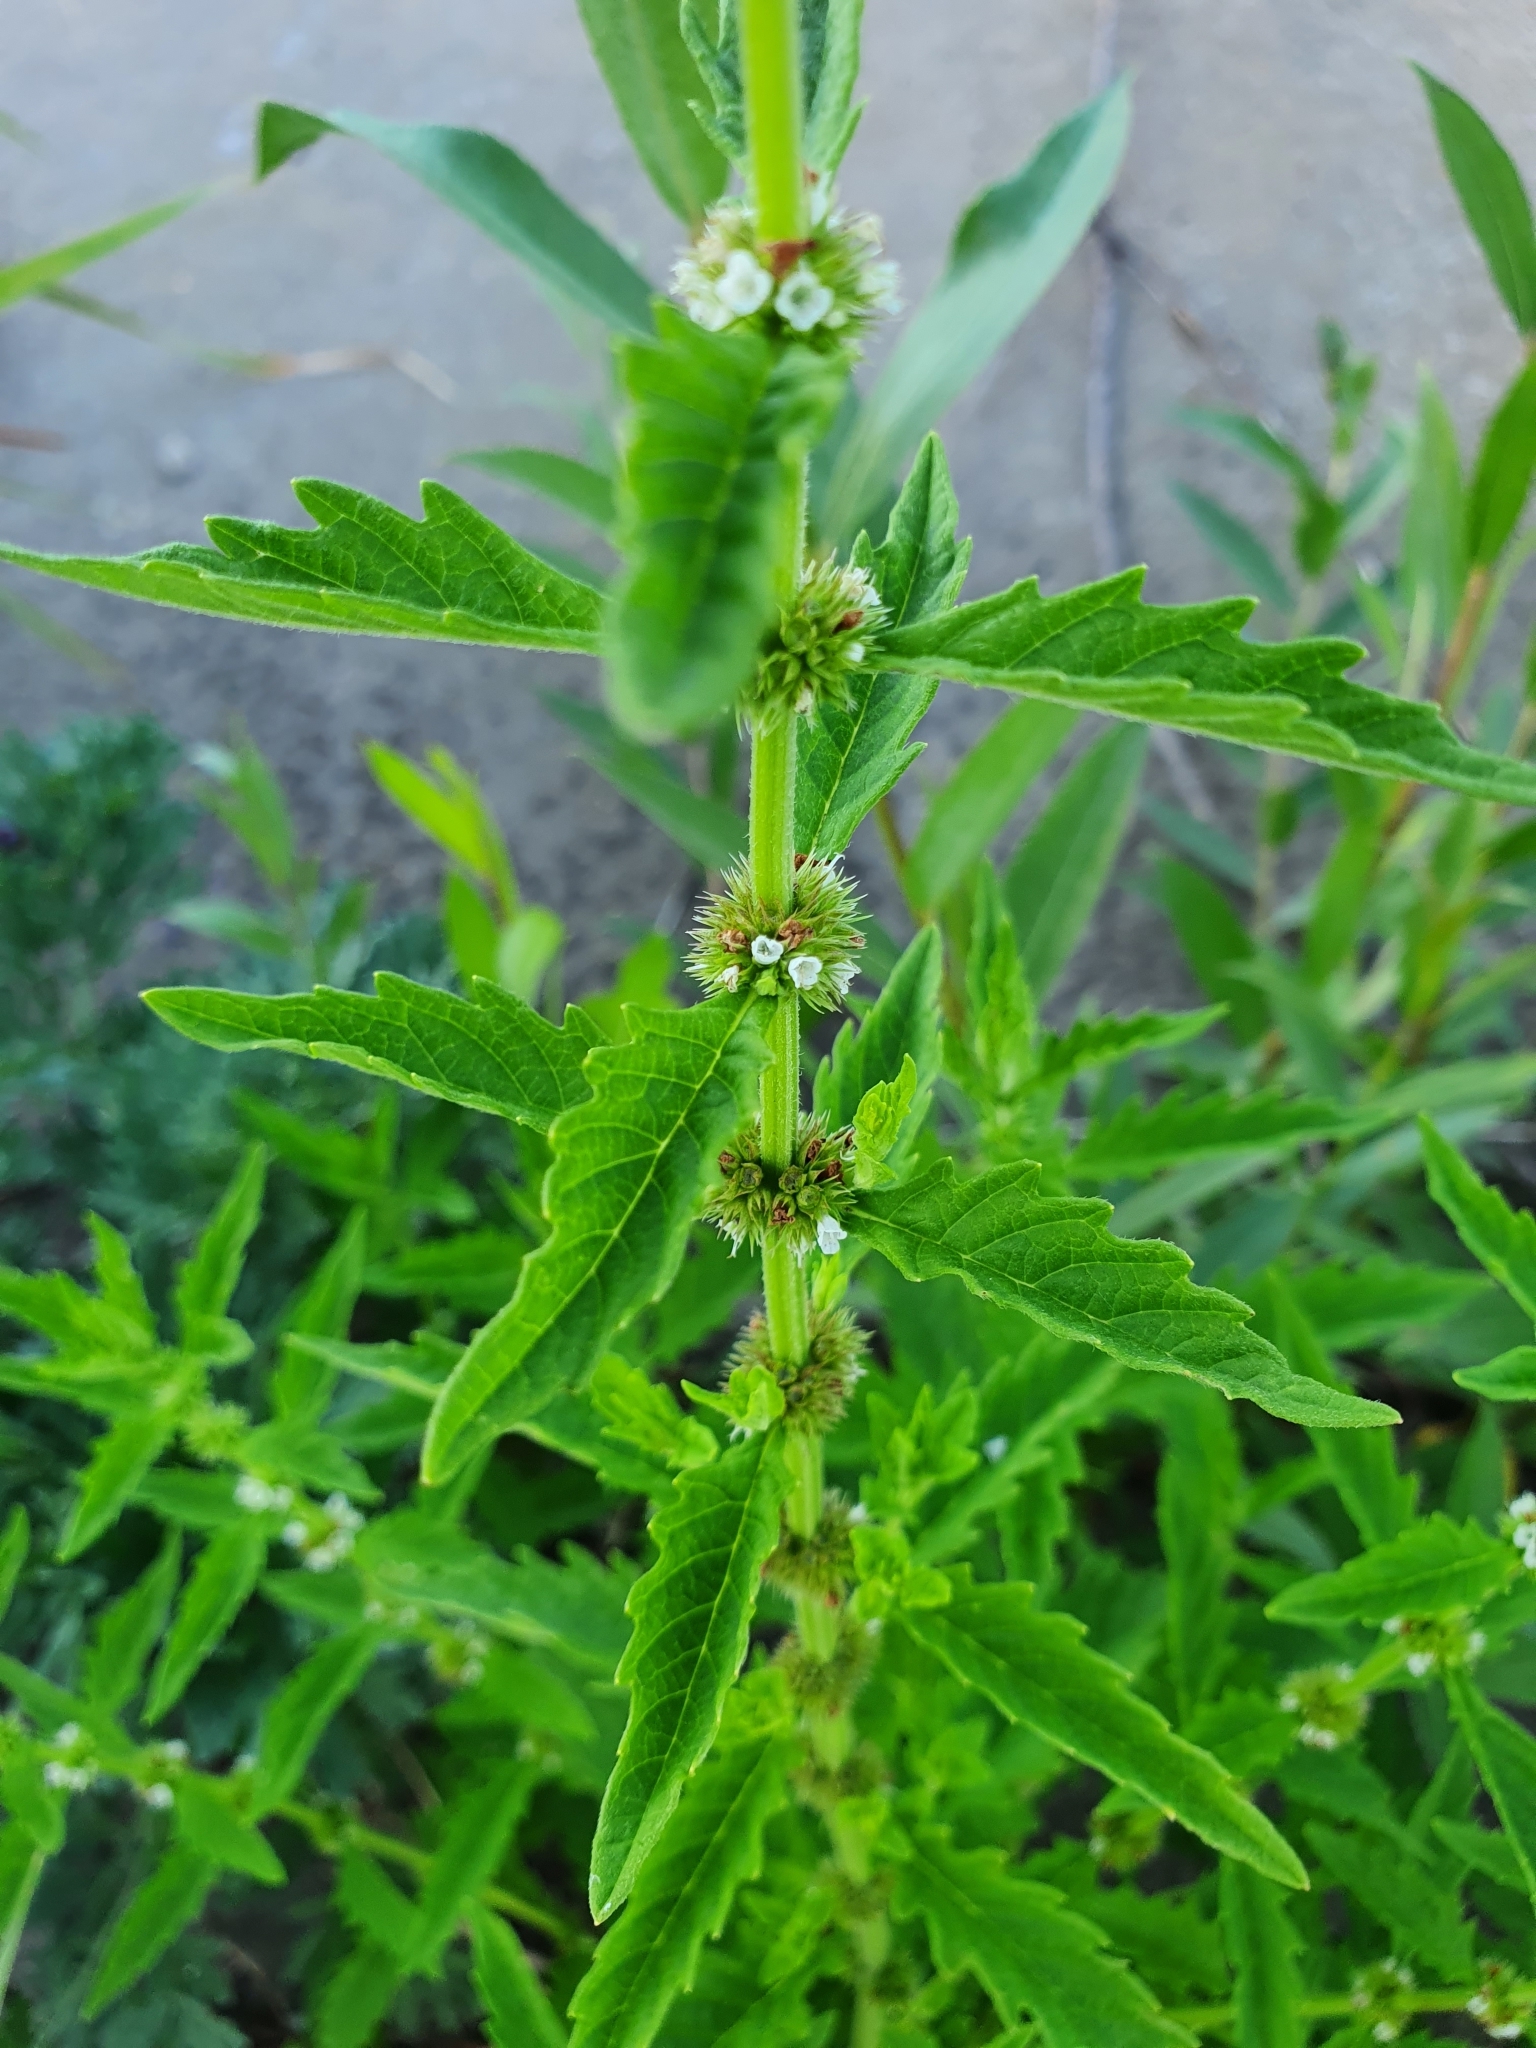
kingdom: Plantae
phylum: Tracheophyta
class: Magnoliopsida
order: Lamiales
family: Lamiaceae
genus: Lycopus
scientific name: Lycopus europaeus
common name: European bugleweed
